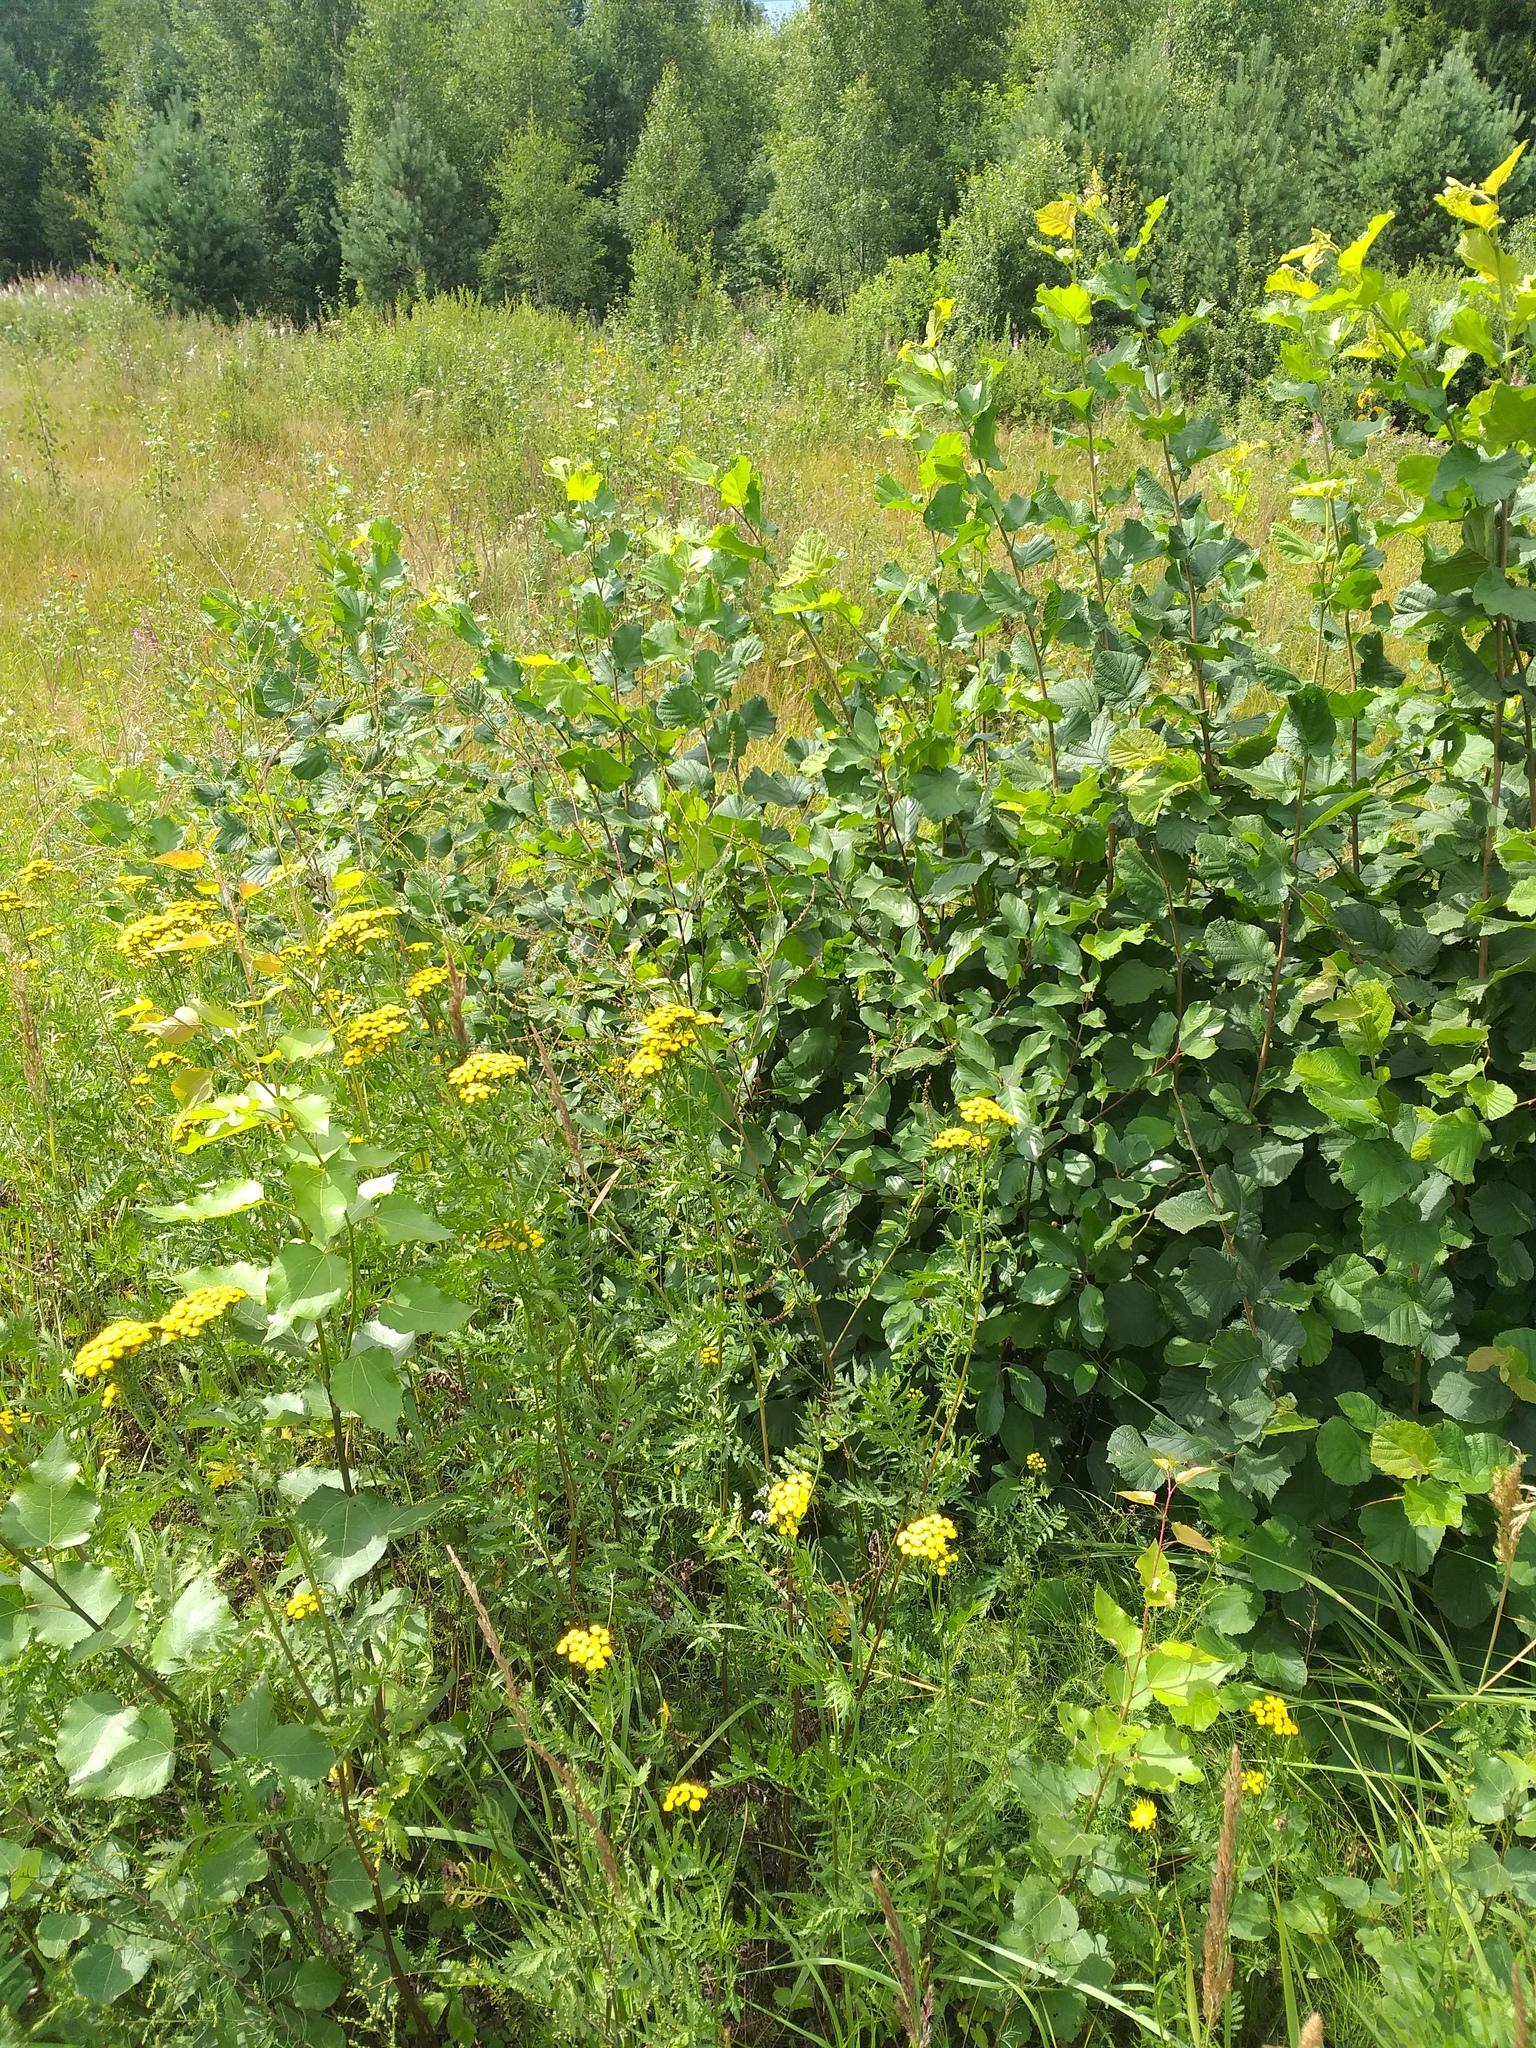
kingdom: Plantae
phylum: Tracheophyta
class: Magnoliopsida
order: Rosales
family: Rhamnaceae
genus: Frangula
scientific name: Frangula alnus
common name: Alder buckthorn
